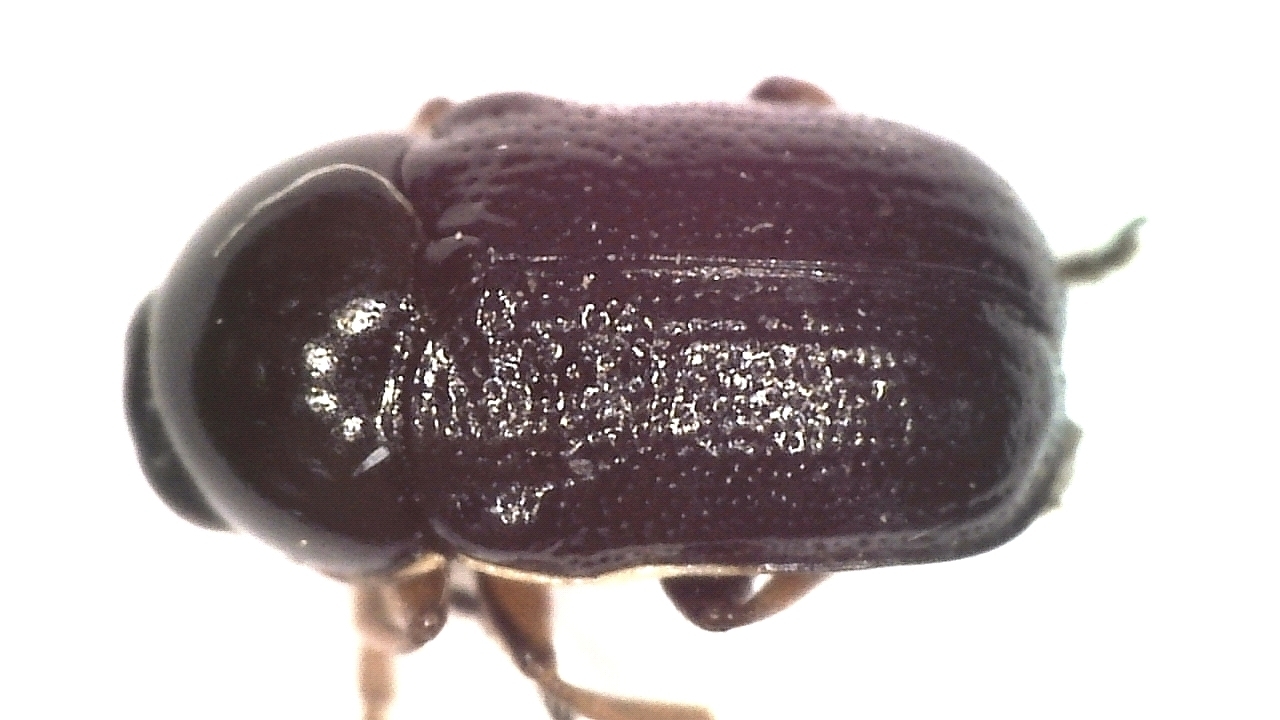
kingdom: Animalia
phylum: Arthropoda
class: Insecta
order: Coleoptera
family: Chrysomelidae
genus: Cryptocephalus
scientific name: Cryptocephalus bameuli
